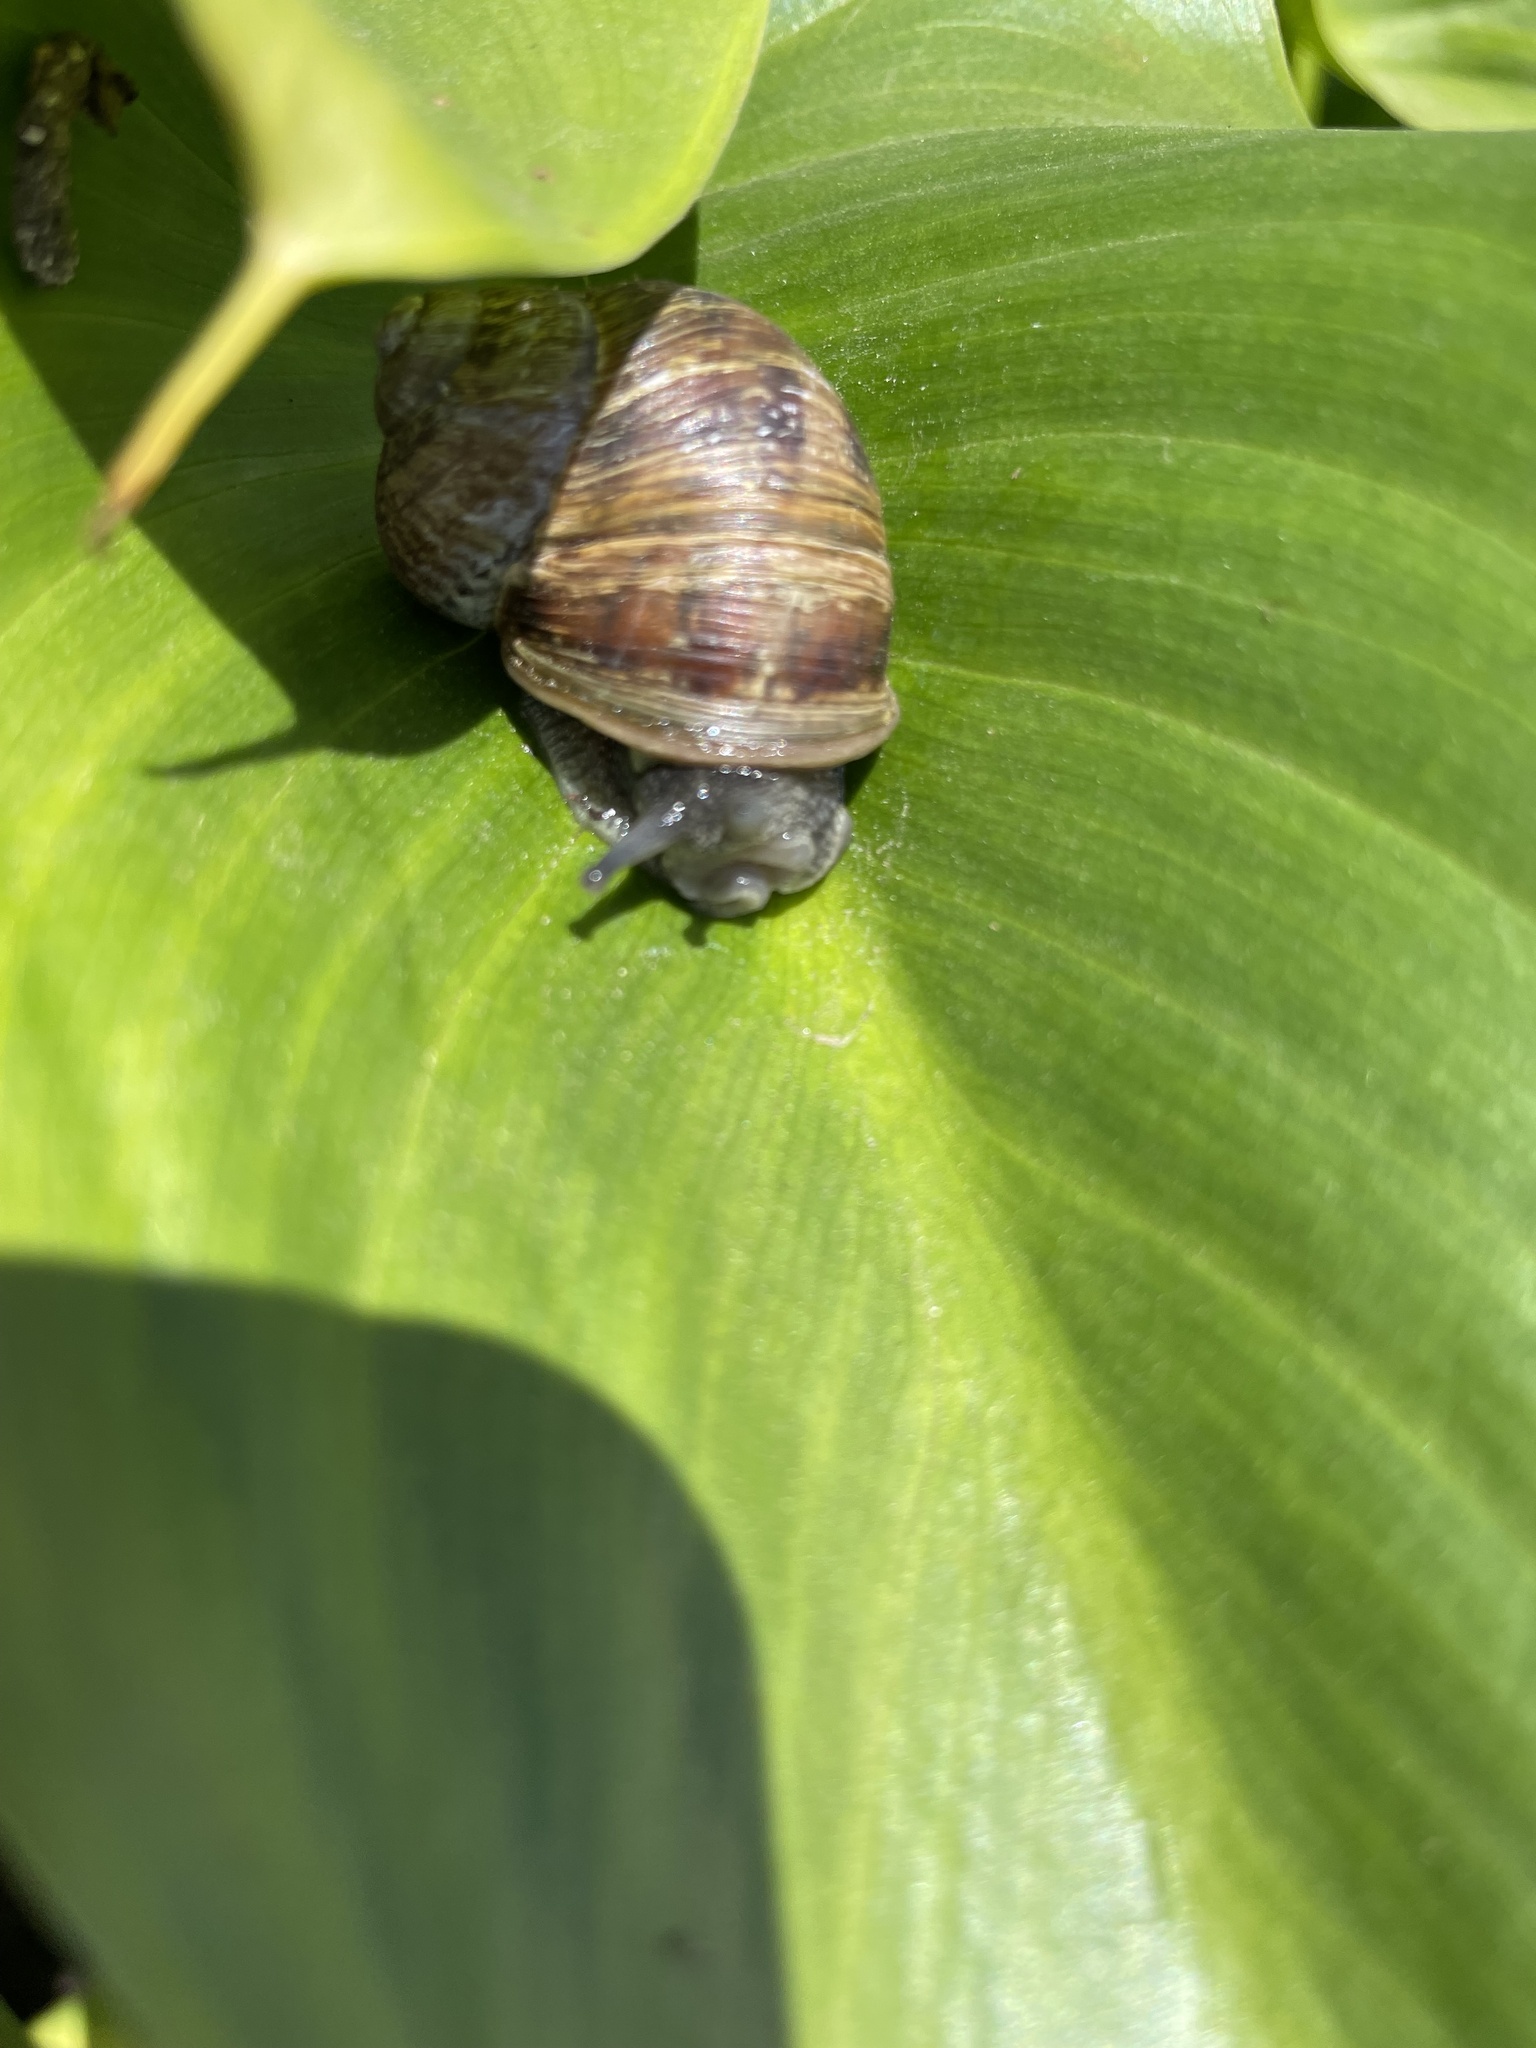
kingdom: Animalia
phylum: Mollusca
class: Gastropoda
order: Stylommatophora
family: Helicidae
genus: Cornu
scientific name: Cornu aspersum
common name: Brown garden snail
